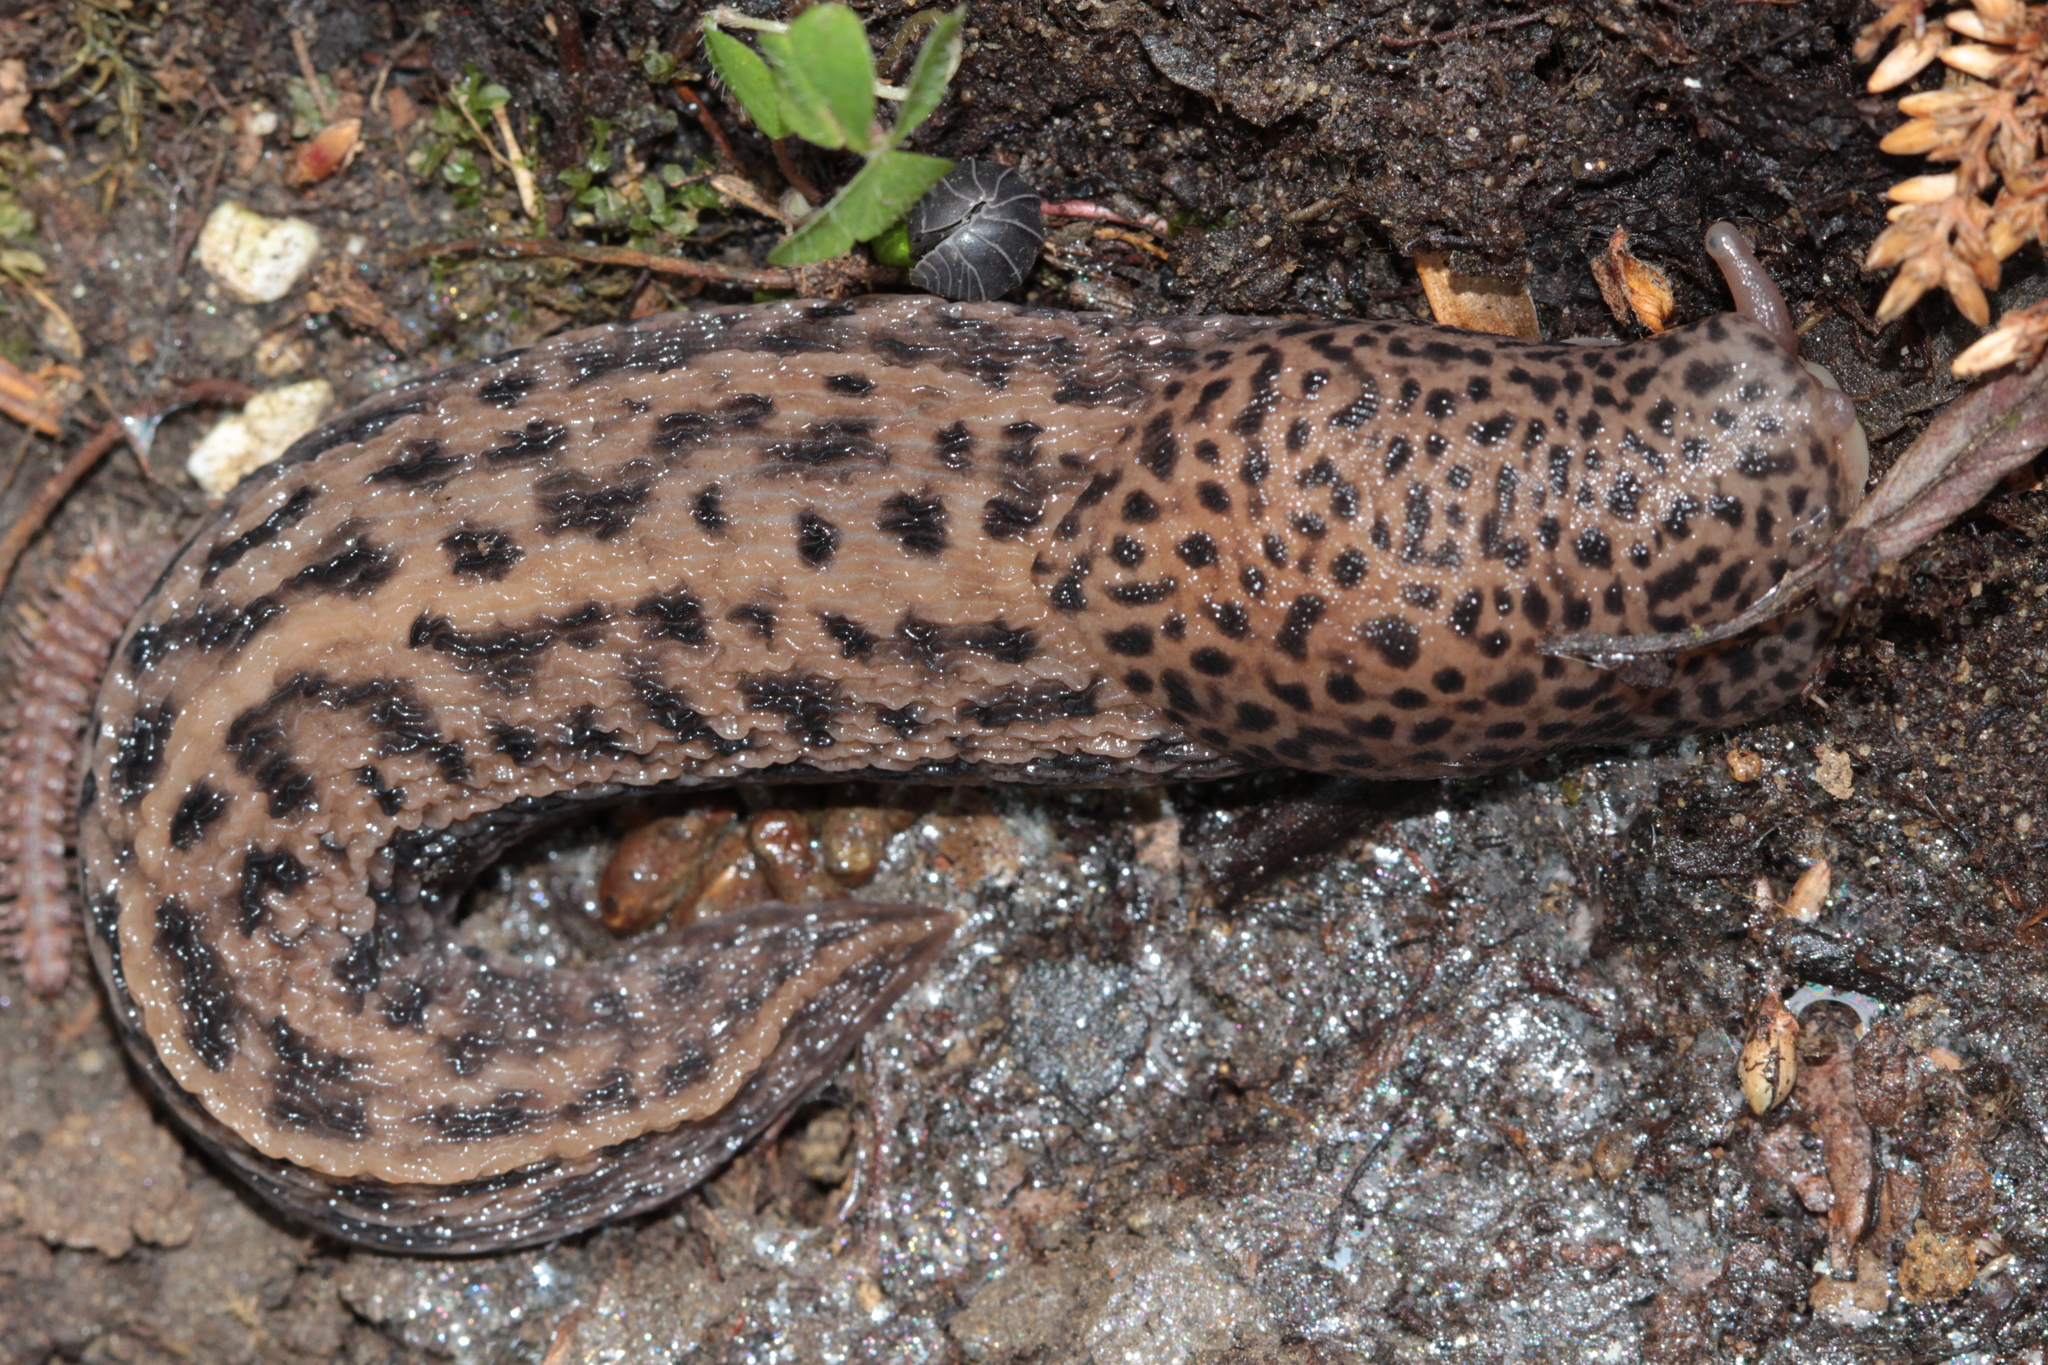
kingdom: Animalia
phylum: Mollusca
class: Gastropoda
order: Stylommatophora
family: Limacidae
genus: Limax
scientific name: Limax maximus
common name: Great grey slug
